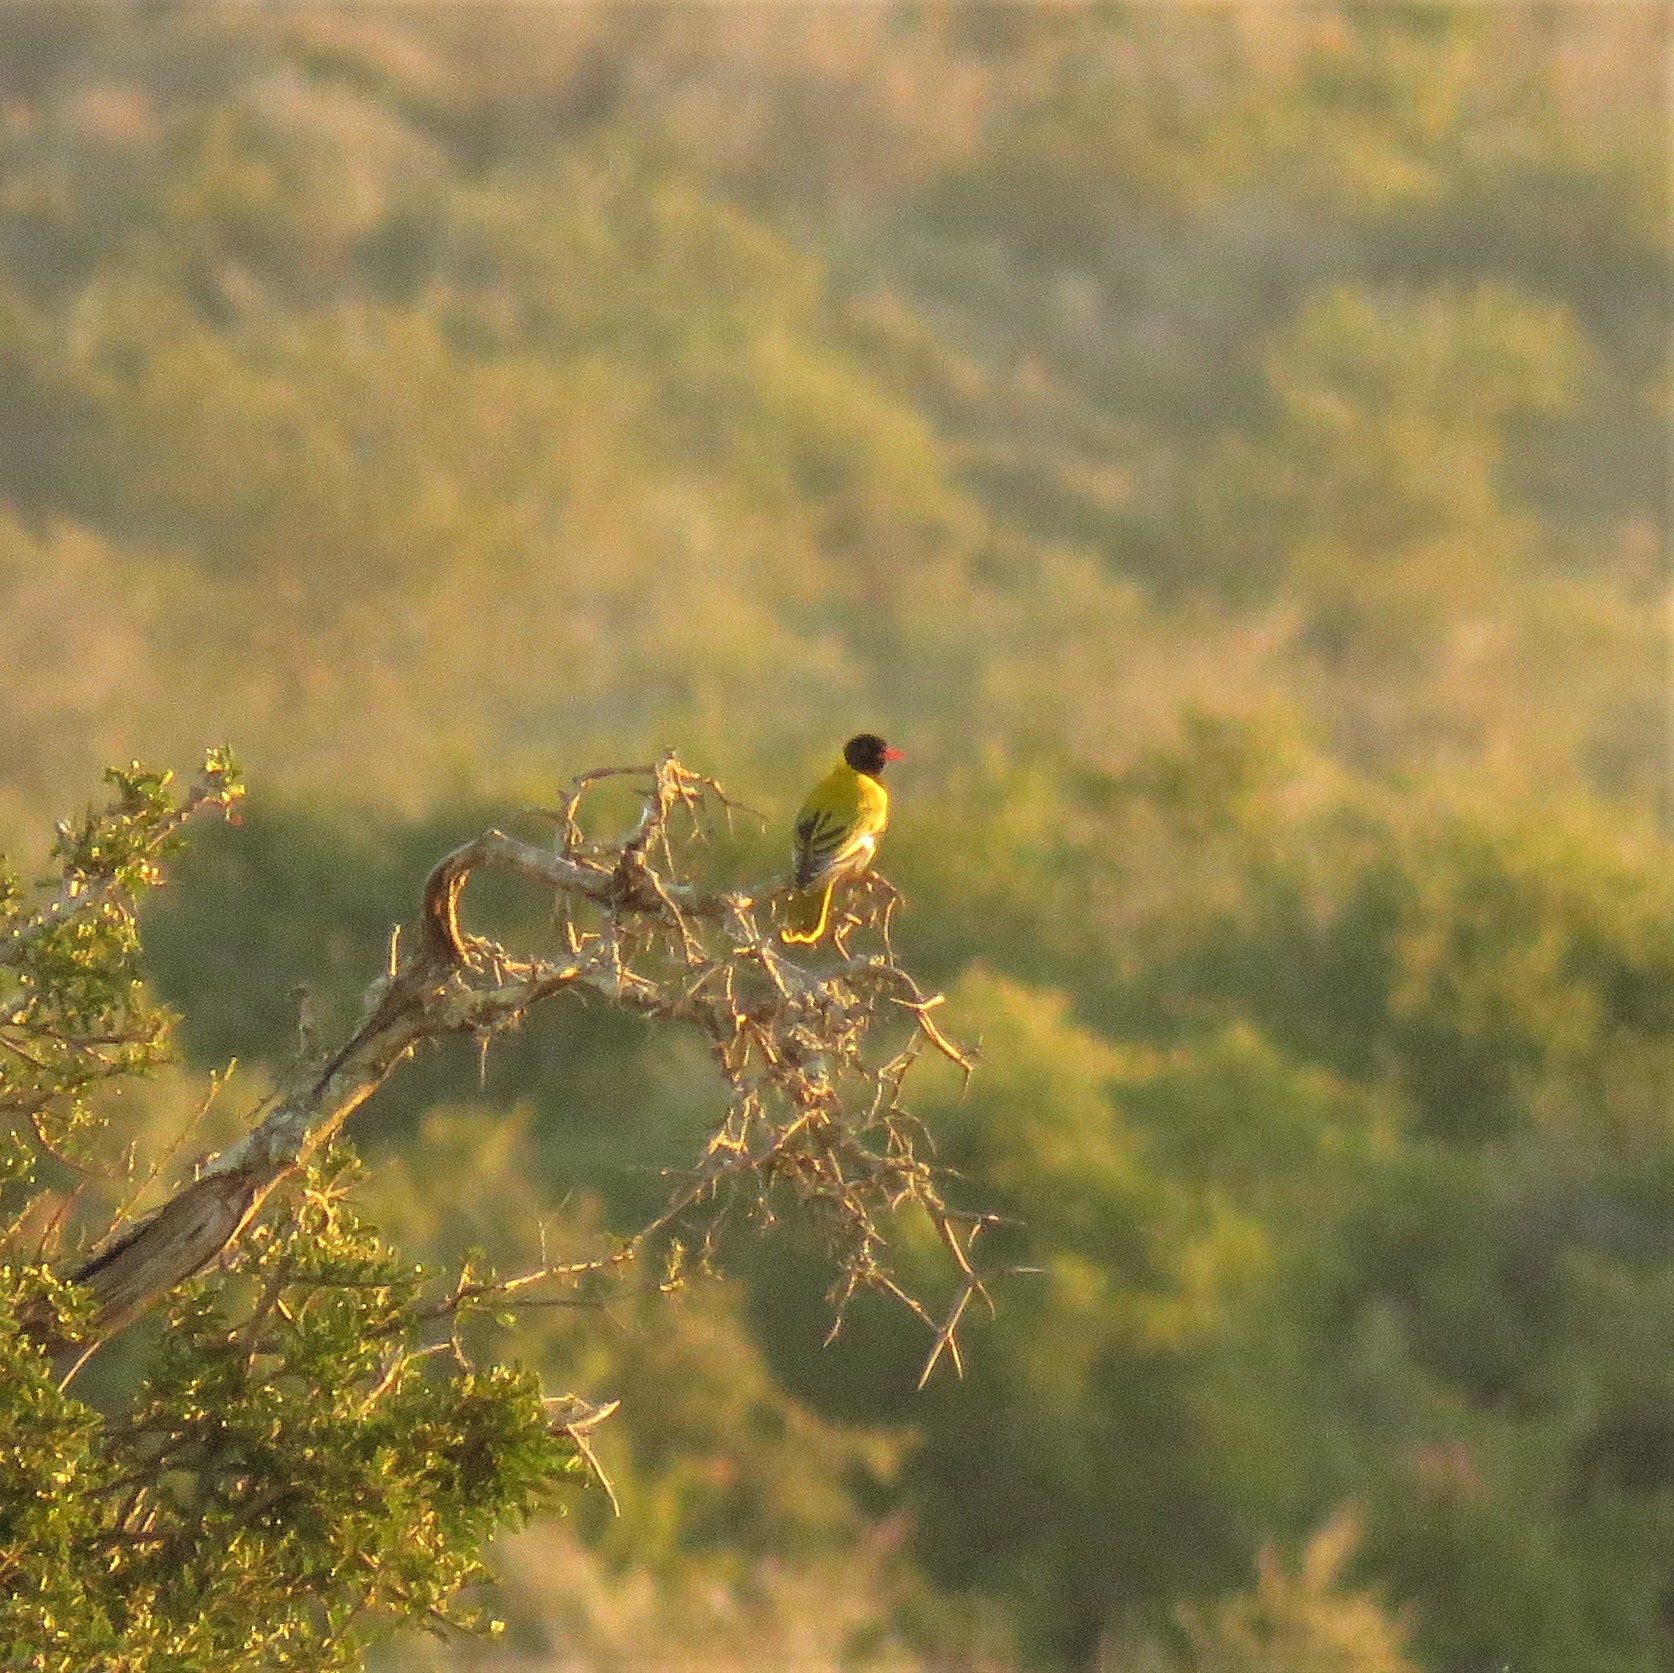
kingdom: Animalia
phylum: Chordata
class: Aves
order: Passeriformes
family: Oriolidae
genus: Oriolus
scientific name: Oriolus larvatus
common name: Black-headed oriole
